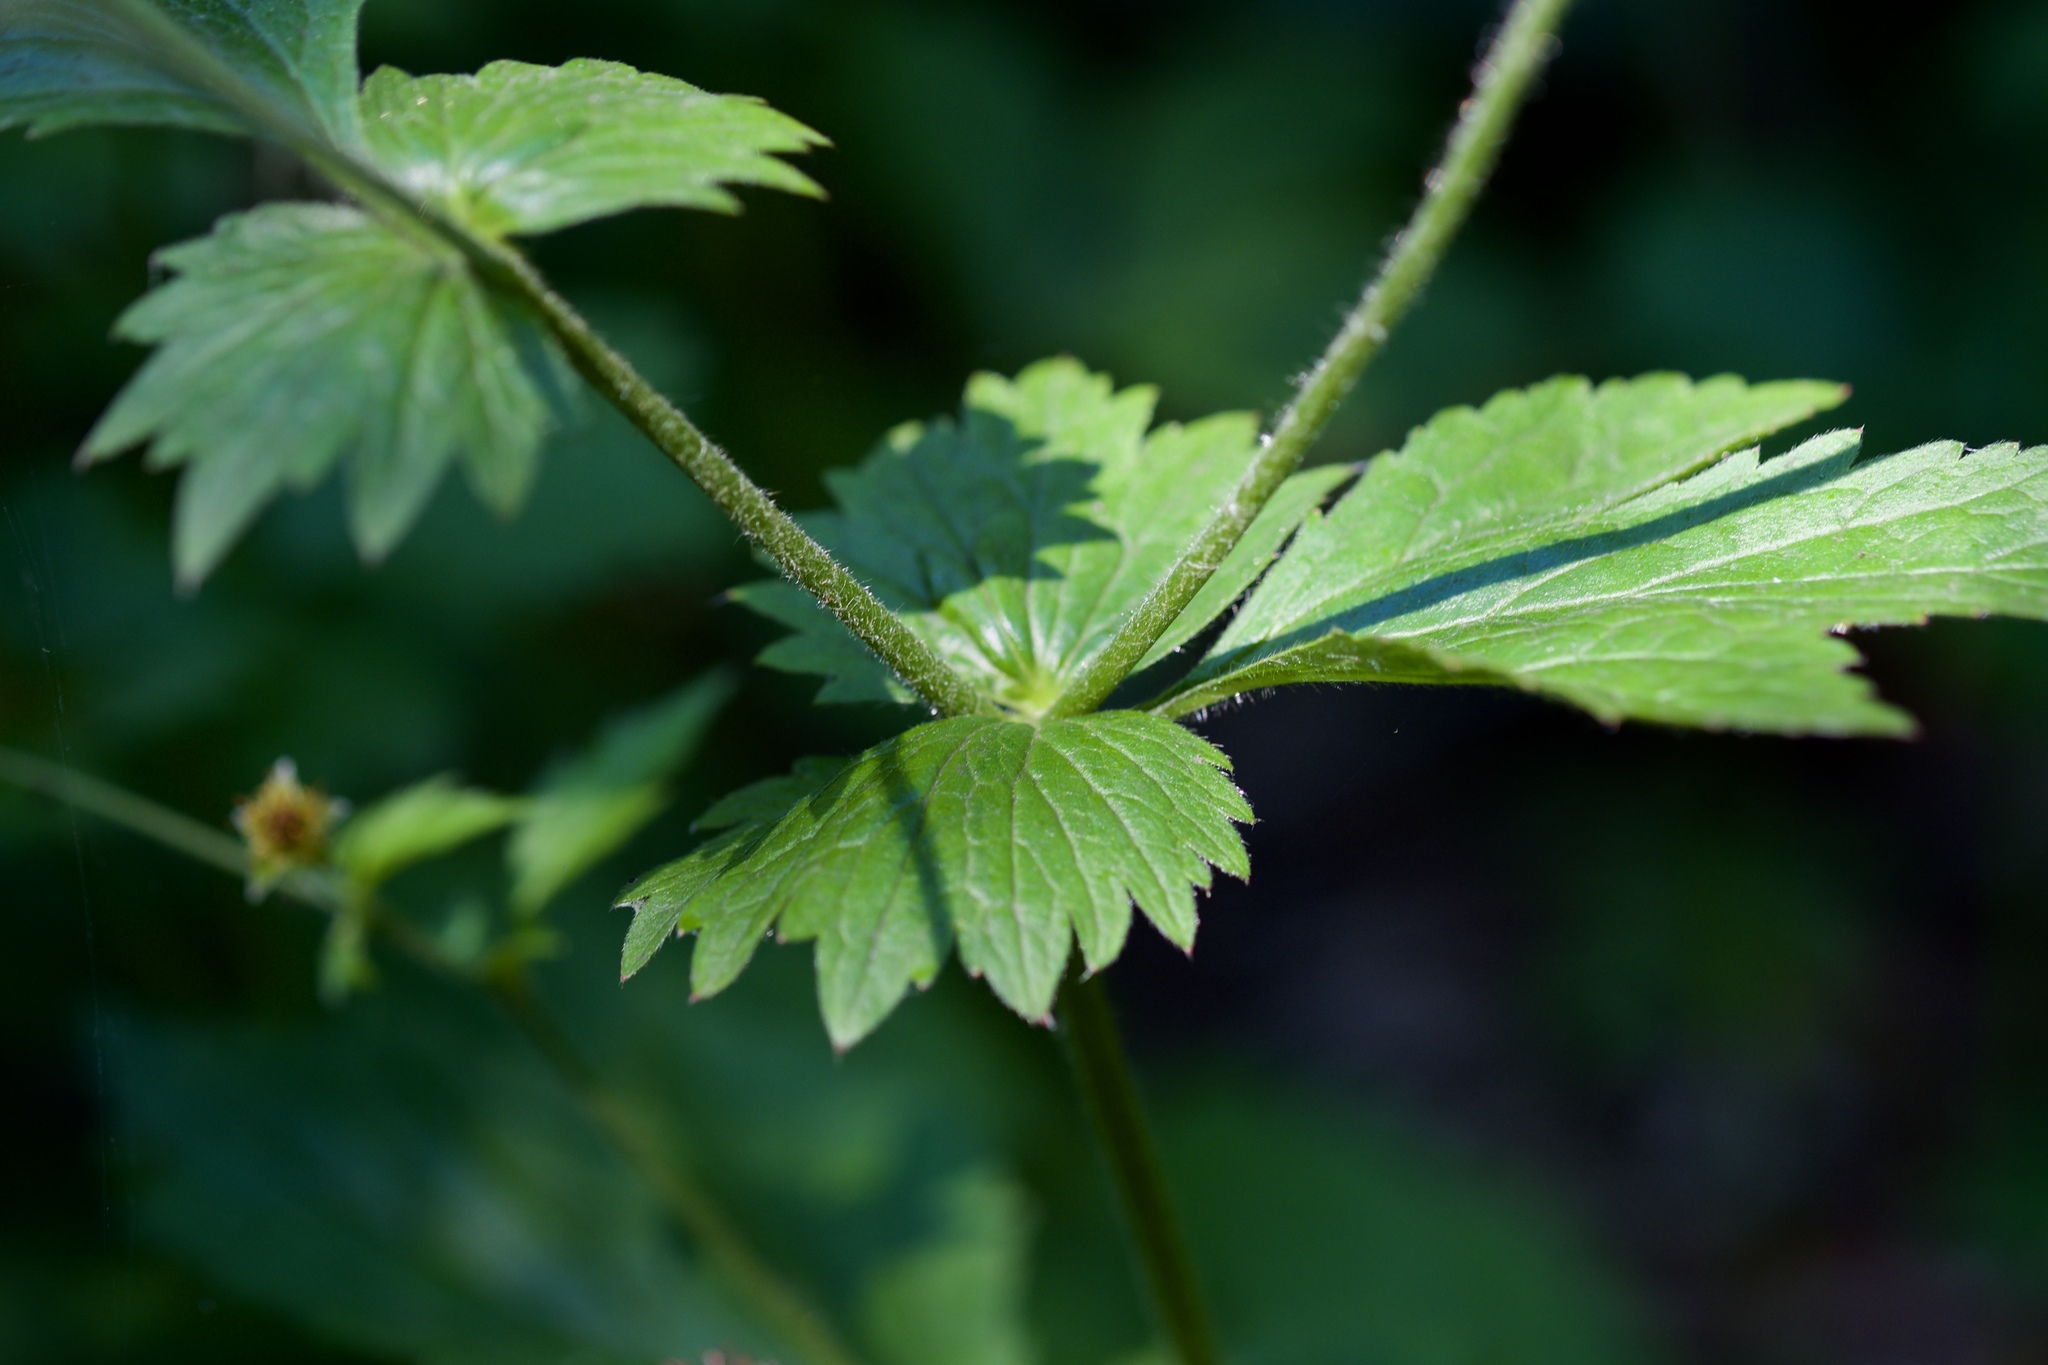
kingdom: Plantae
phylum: Tracheophyta
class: Magnoliopsida
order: Rosales
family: Rosaceae
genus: Geum
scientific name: Geum urbanum
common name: Wood avens
